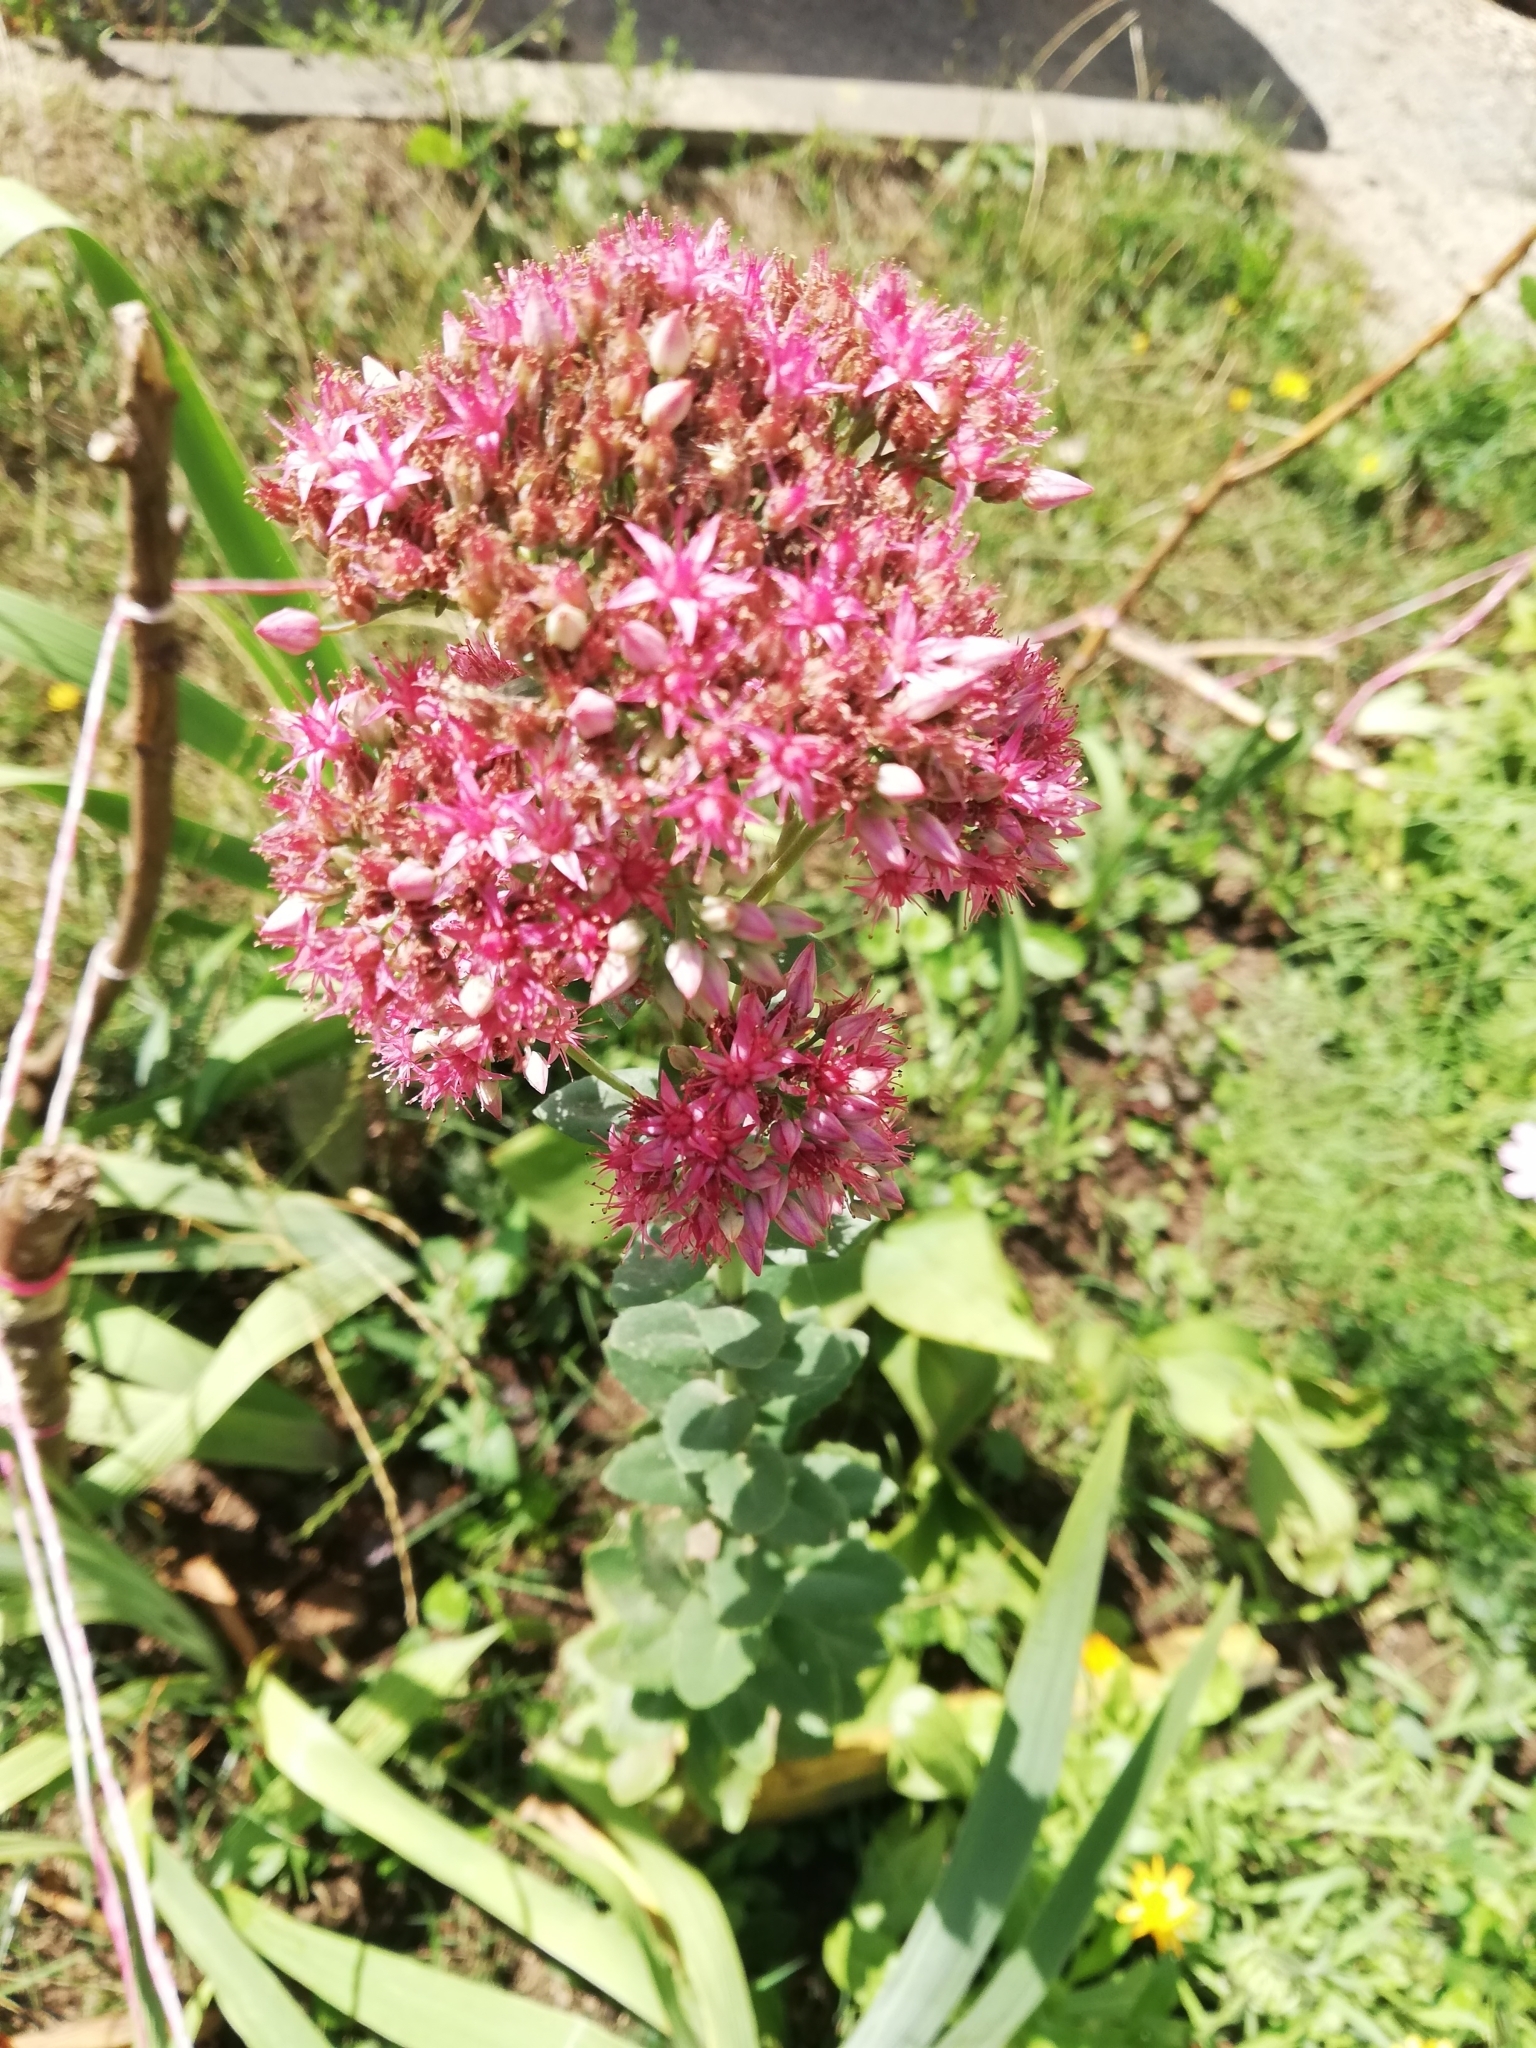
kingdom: Plantae
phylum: Tracheophyta
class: Magnoliopsida
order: Saxifragales
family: Crassulaceae
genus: Hylotelephium
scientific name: Hylotelephium telephium
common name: Live-forever
